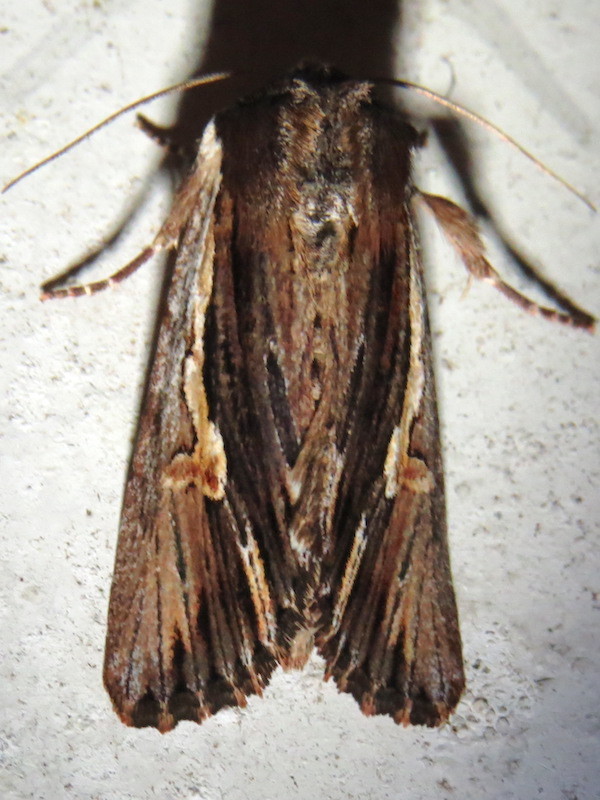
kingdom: Animalia
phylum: Arthropoda
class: Insecta
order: Lepidoptera
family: Noctuidae
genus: Achatia
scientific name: Achatia evicta
